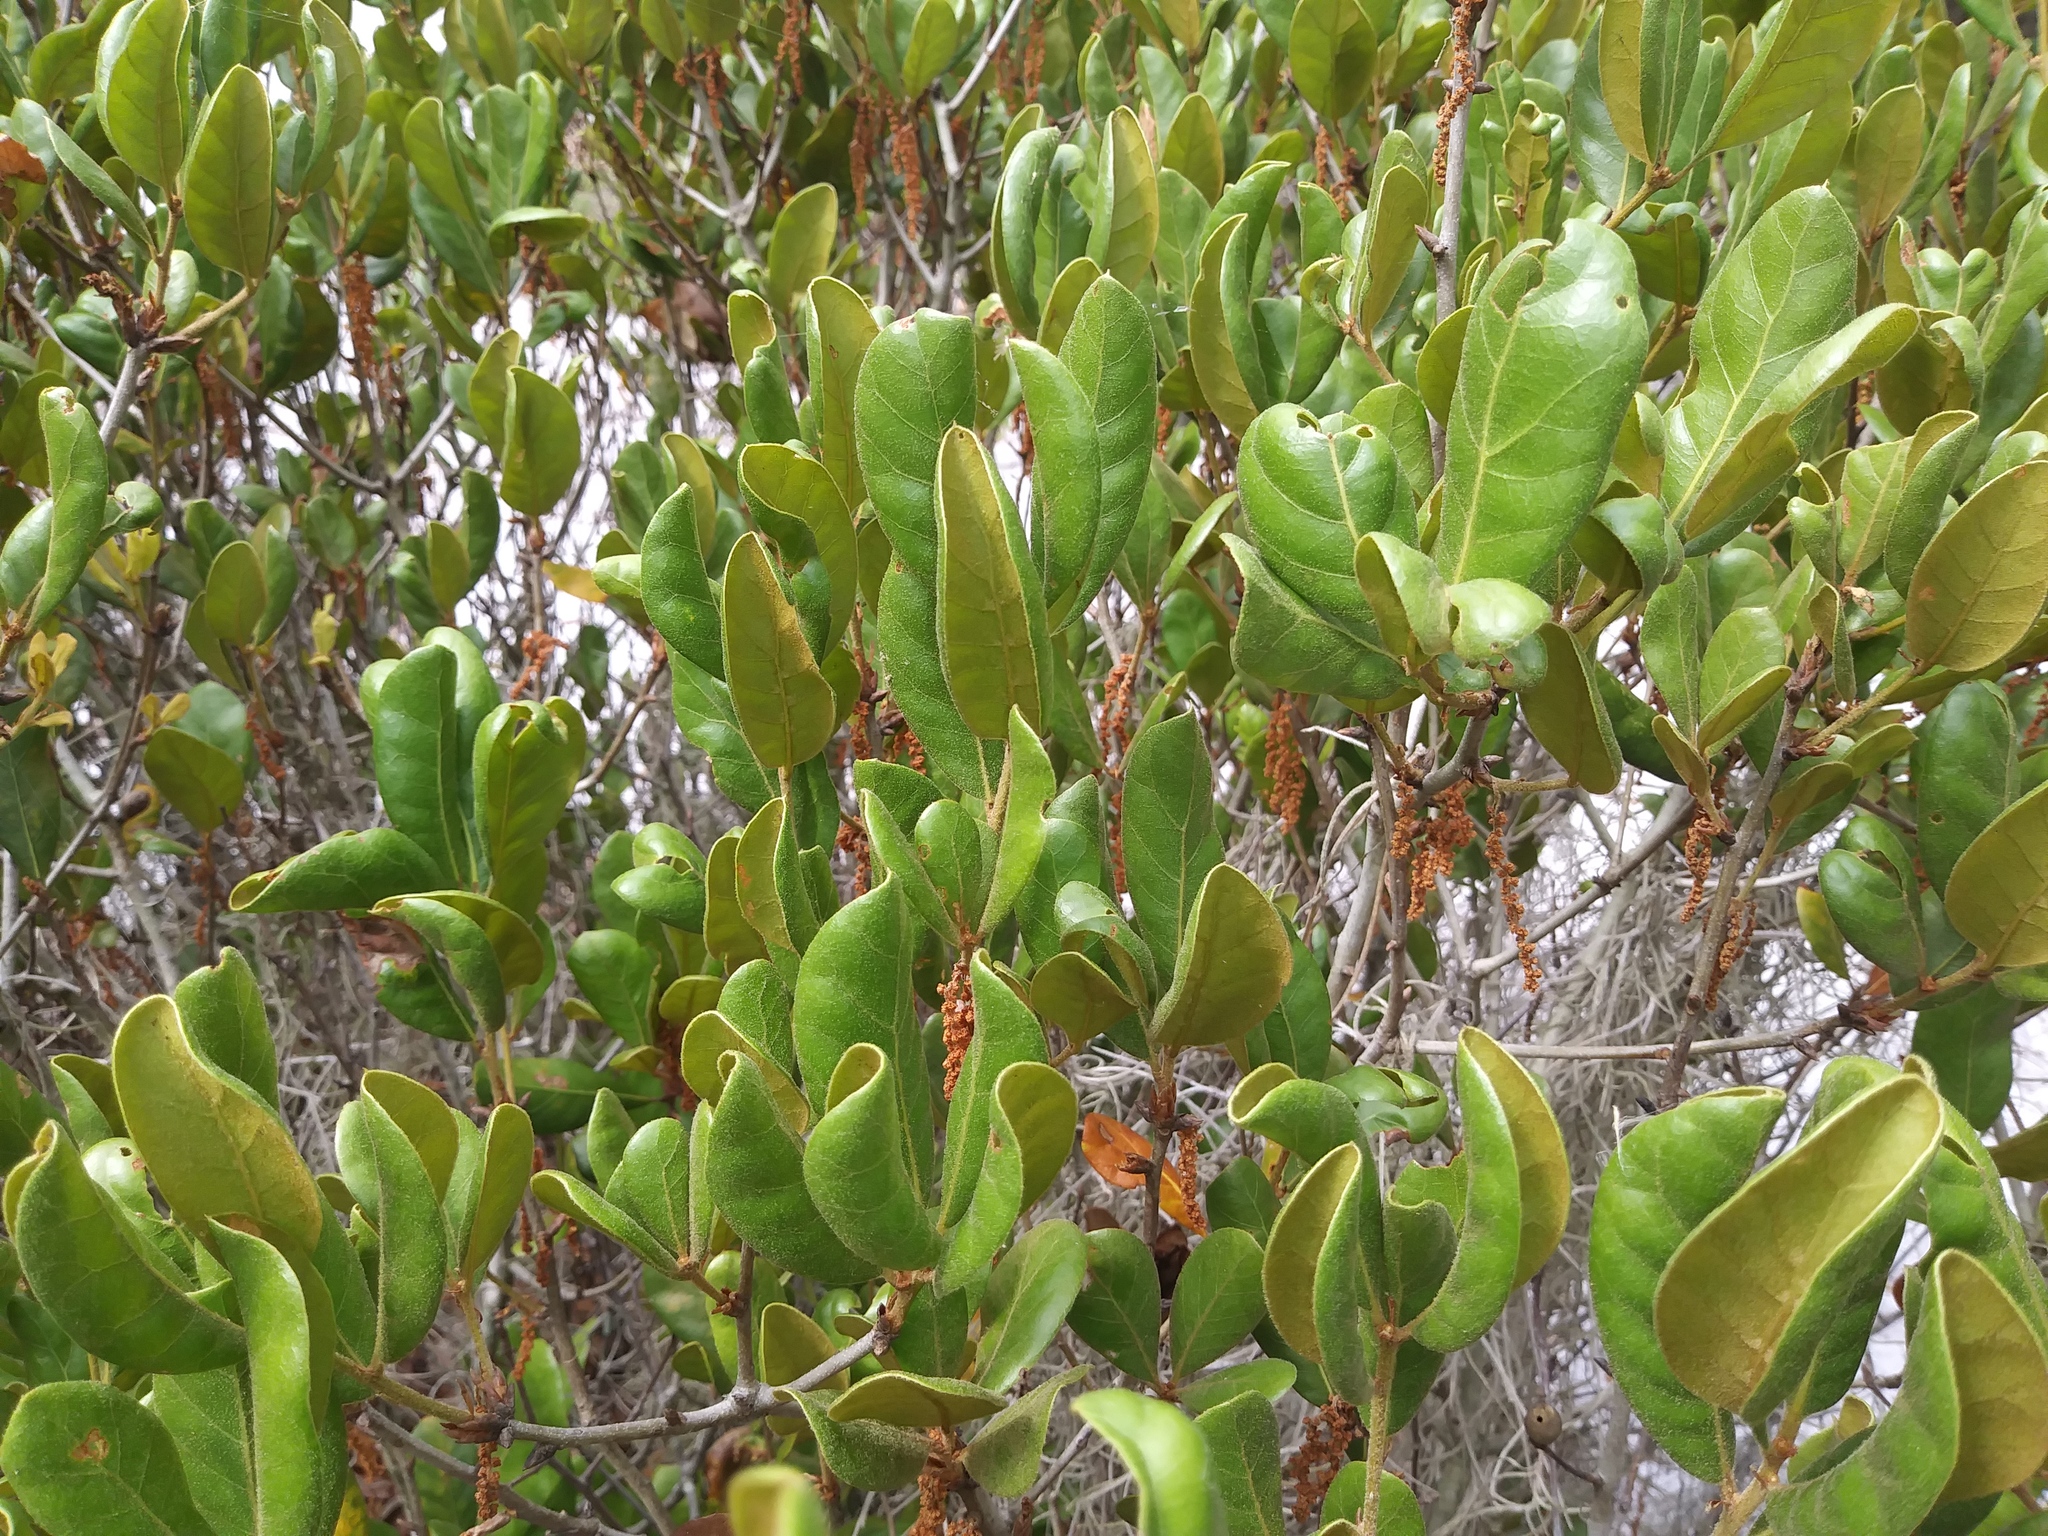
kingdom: Plantae
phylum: Tracheophyta
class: Magnoliopsida
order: Fagales
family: Fagaceae
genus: Quercus
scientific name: Quercus inopina
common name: Sandhill oak
